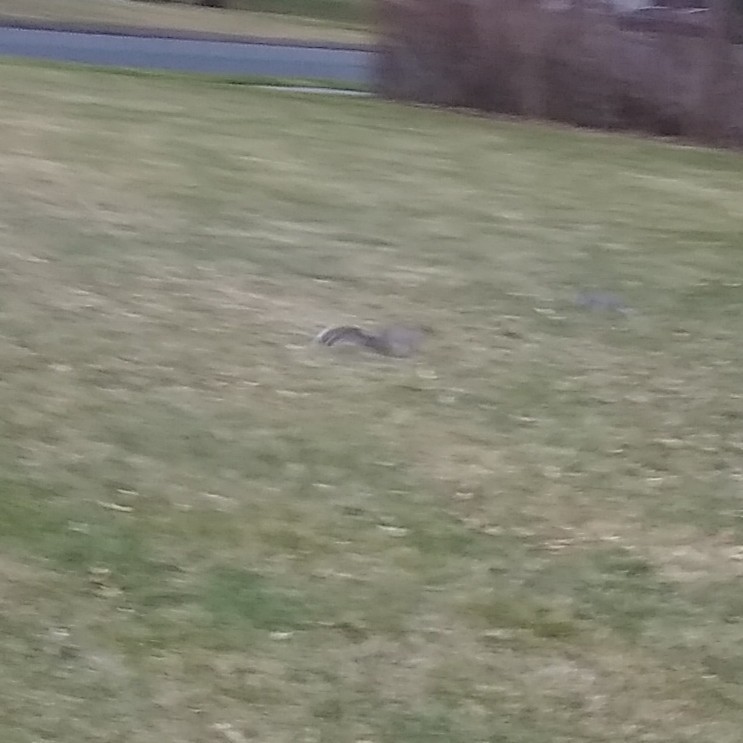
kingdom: Animalia
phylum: Chordata
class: Mammalia
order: Rodentia
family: Sciuridae
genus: Sciurus
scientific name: Sciurus carolinensis
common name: Eastern gray squirrel
